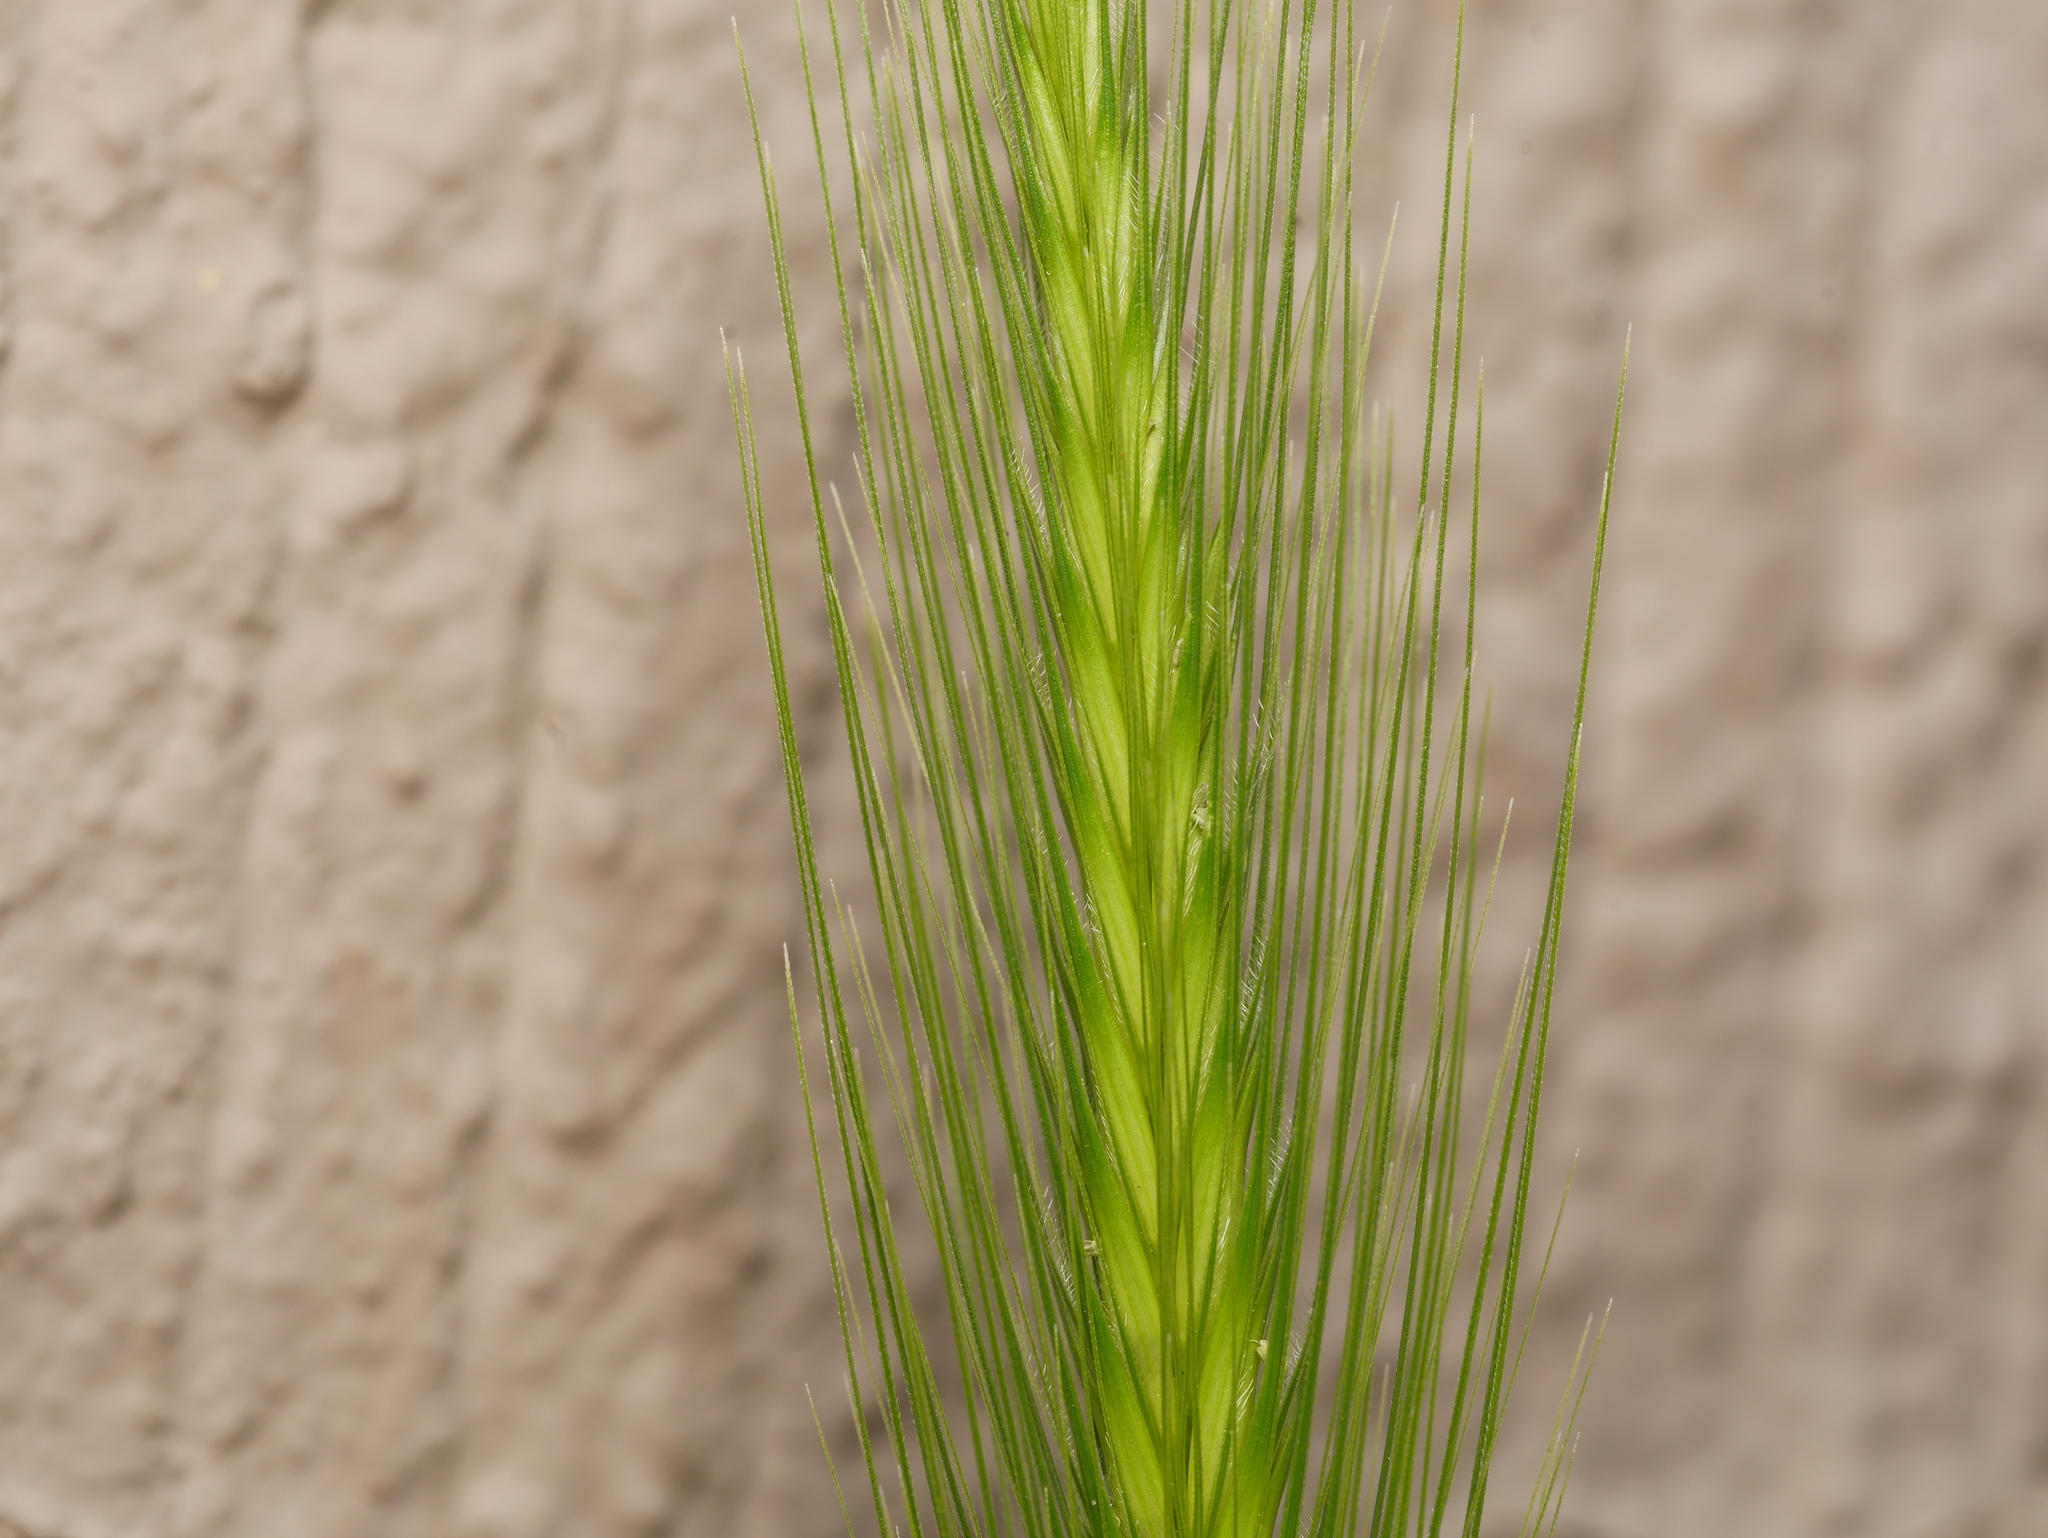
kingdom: Plantae
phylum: Tracheophyta
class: Liliopsida
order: Poales
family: Poaceae
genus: Hordeum
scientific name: Hordeum murinum
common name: Wall barley
